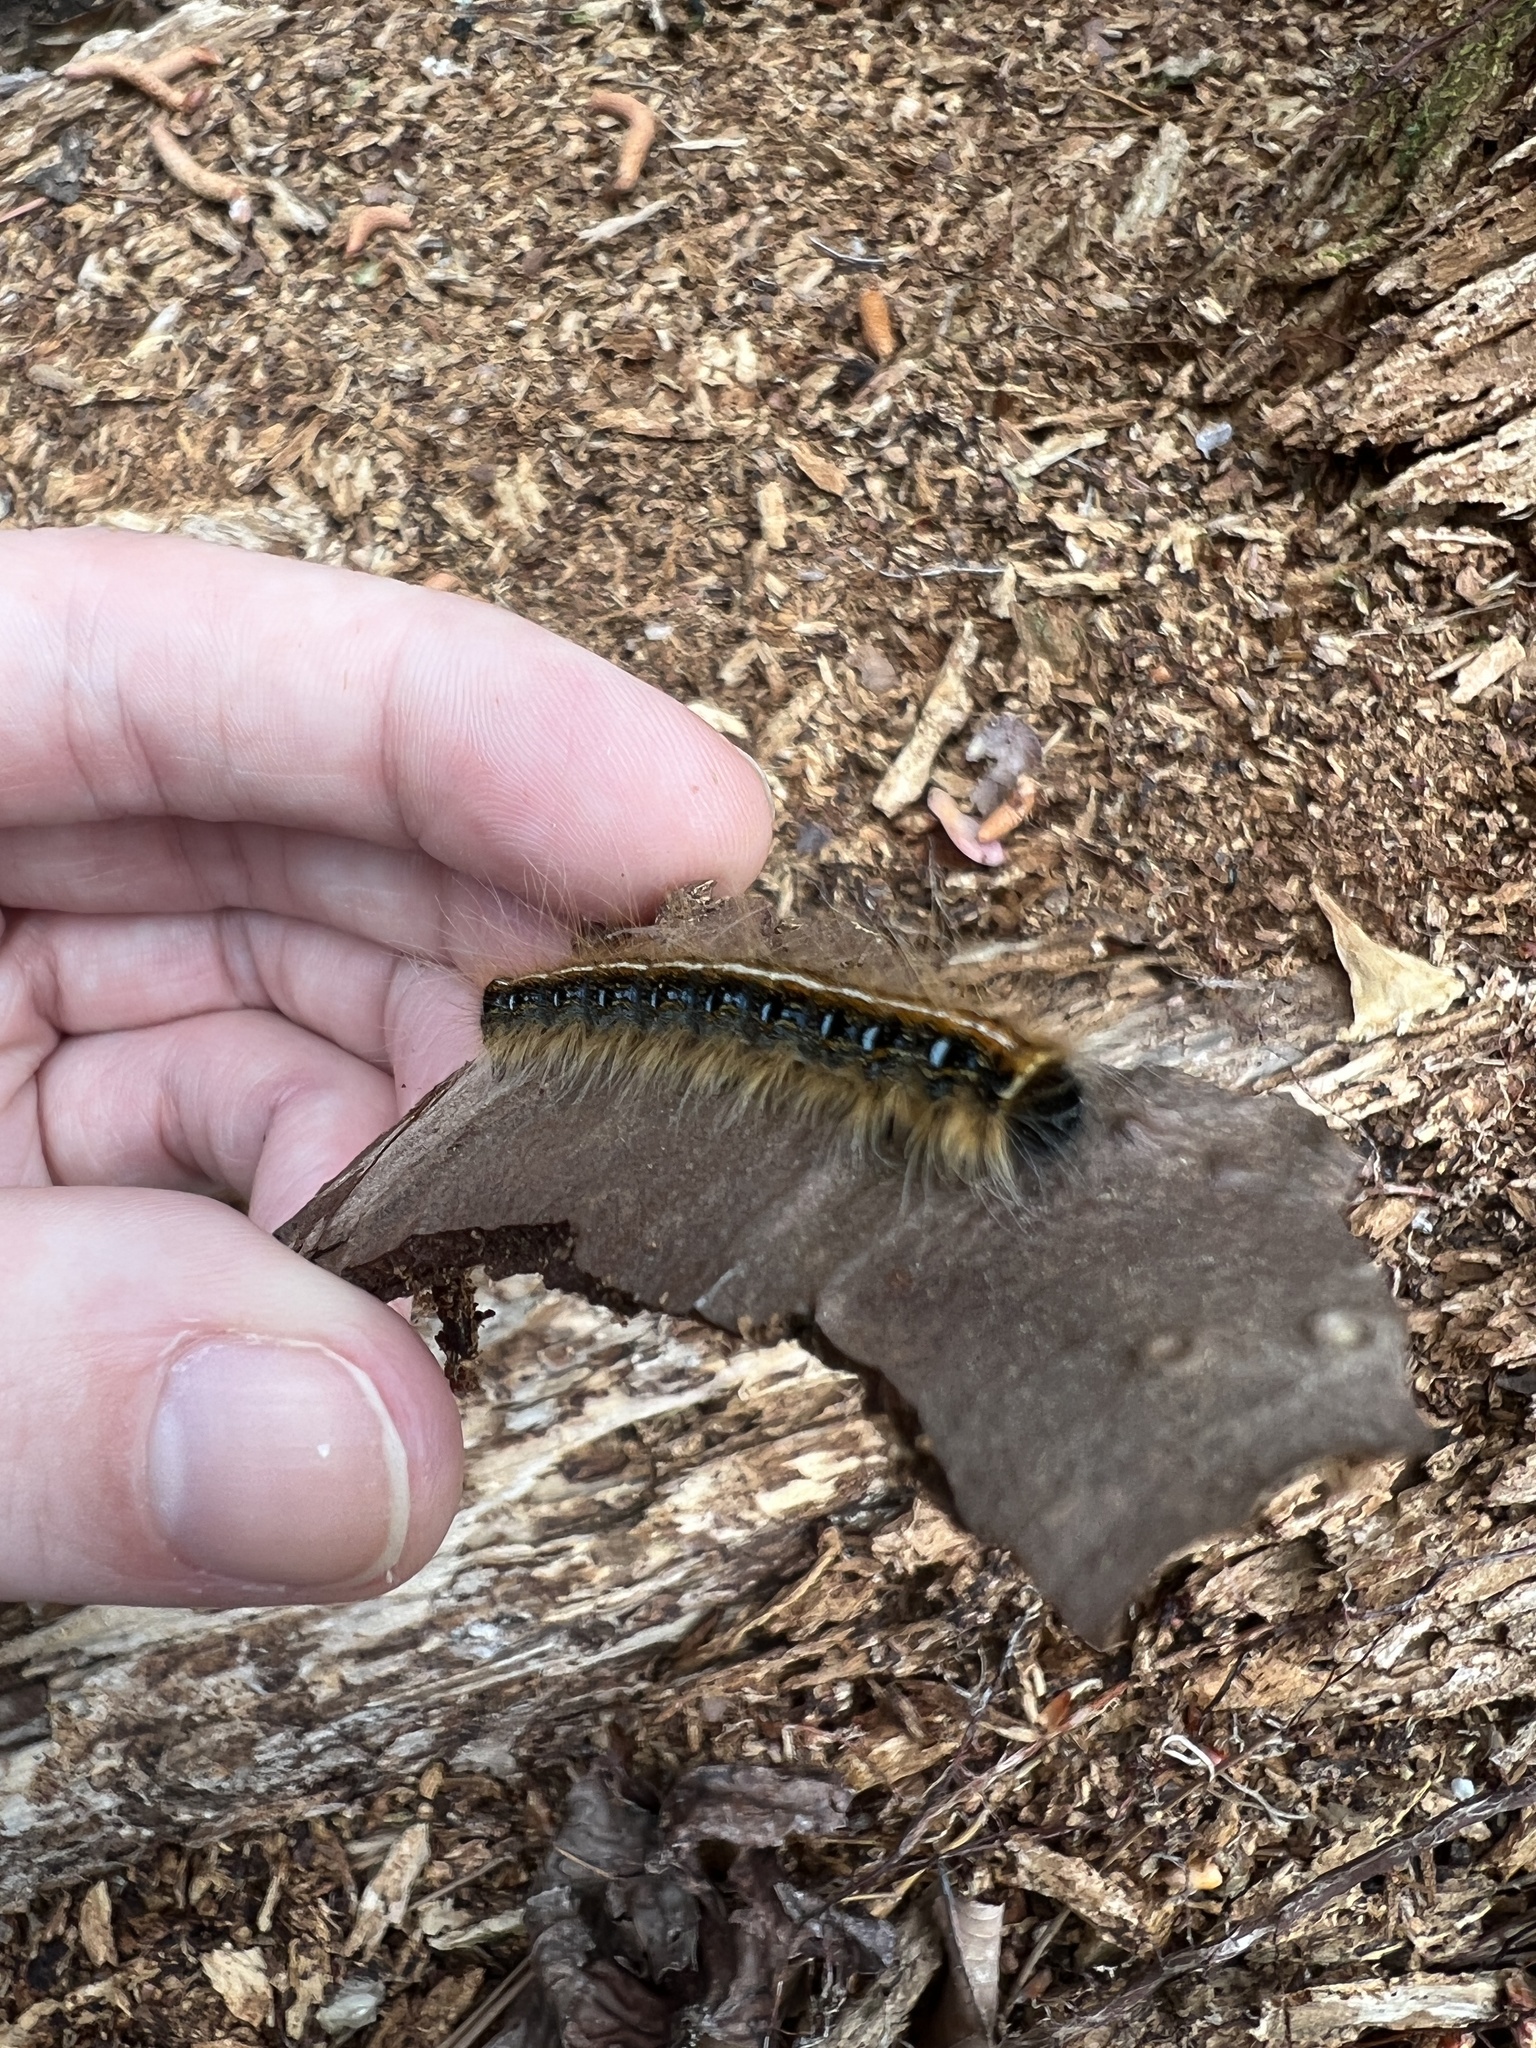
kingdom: Animalia
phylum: Arthropoda
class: Insecta
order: Lepidoptera
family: Lasiocampidae
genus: Malacosoma
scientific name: Malacosoma americana
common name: Eastern tent caterpillar moth
